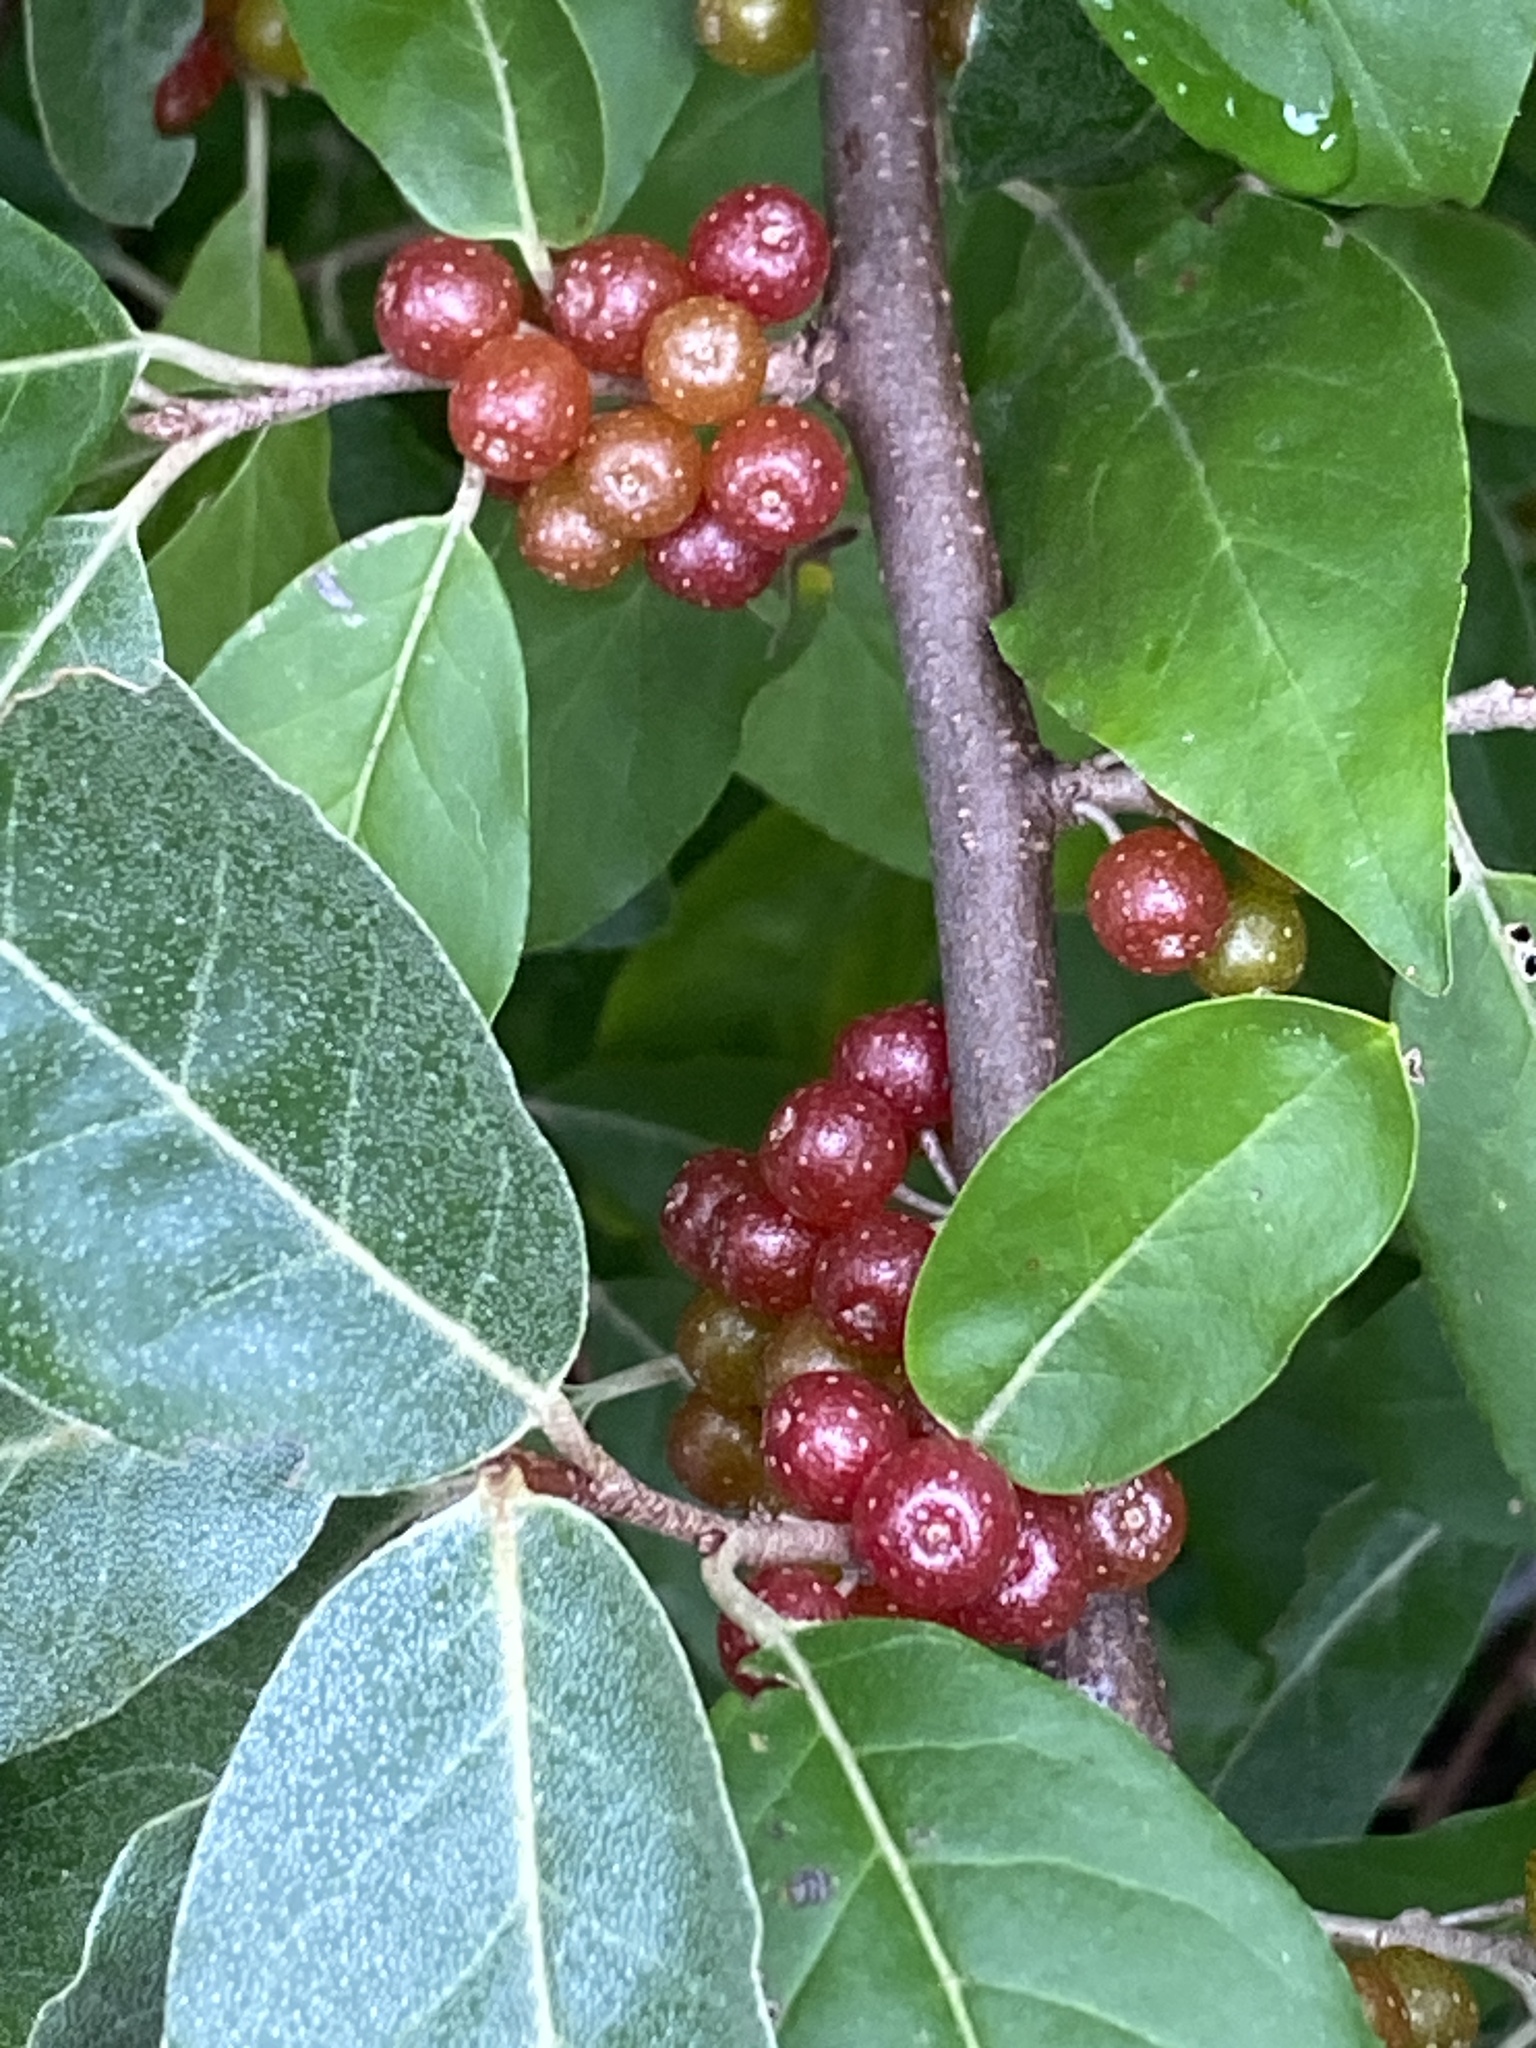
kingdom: Plantae
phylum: Tracheophyta
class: Magnoliopsida
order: Rosales
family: Elaeagnaceae
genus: Elaeagnus
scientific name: Elaeagnus umbellata
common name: Autumn olive
